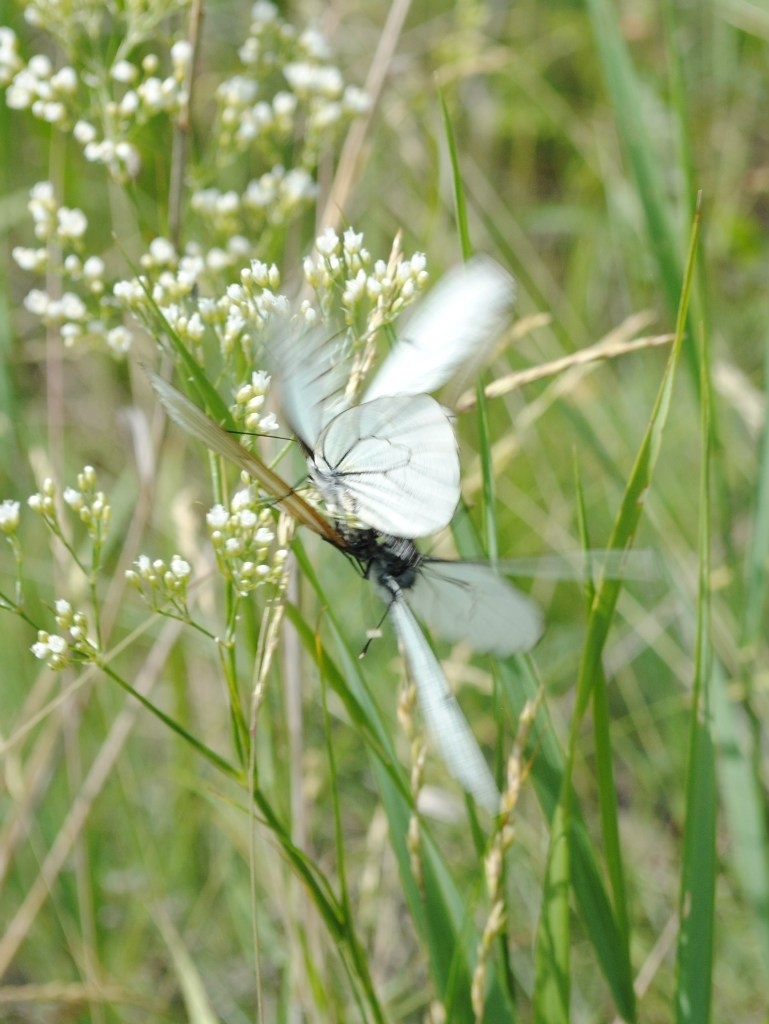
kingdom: Animalia
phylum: Arthropoda
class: Insecta
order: Lepidoptera
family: Pieridae
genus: Aporia
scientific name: Aporia crataegi
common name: Black-veined white
